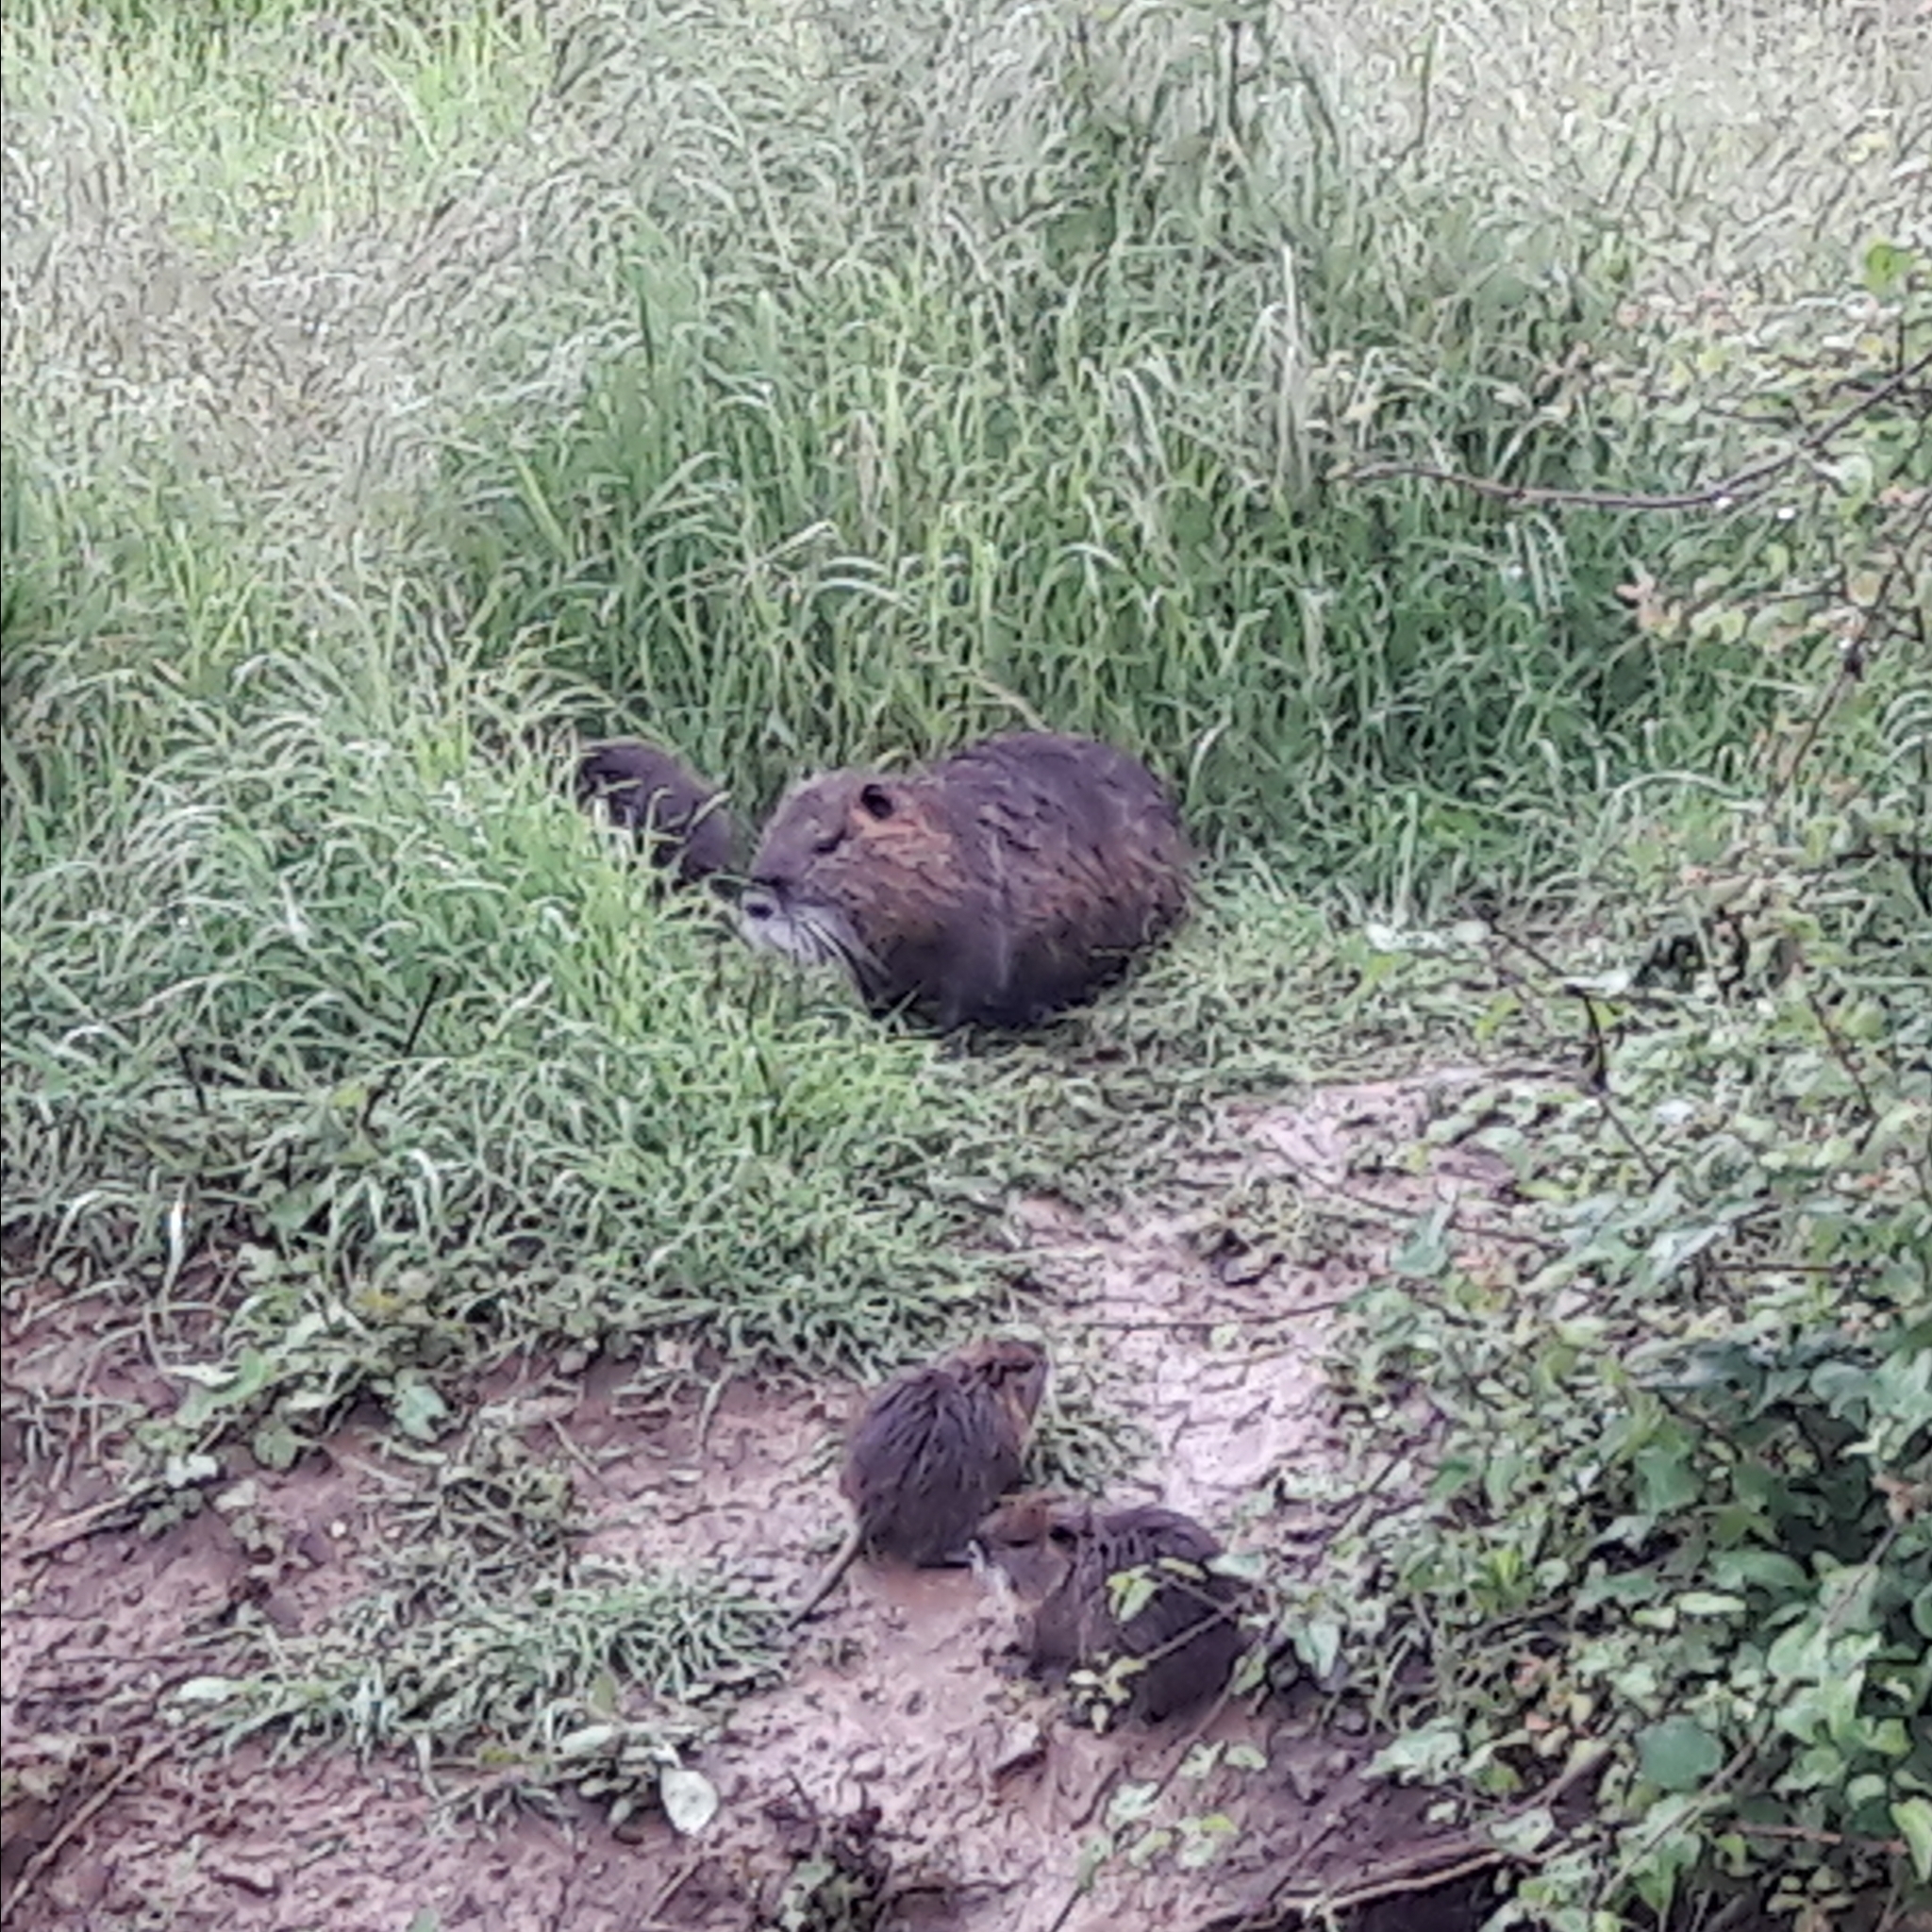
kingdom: Animalia
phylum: Chordata
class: Mammalia
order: Rodentia
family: Myocastoridae
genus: Myocastor
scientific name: Myocastor coypus
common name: Coypu
